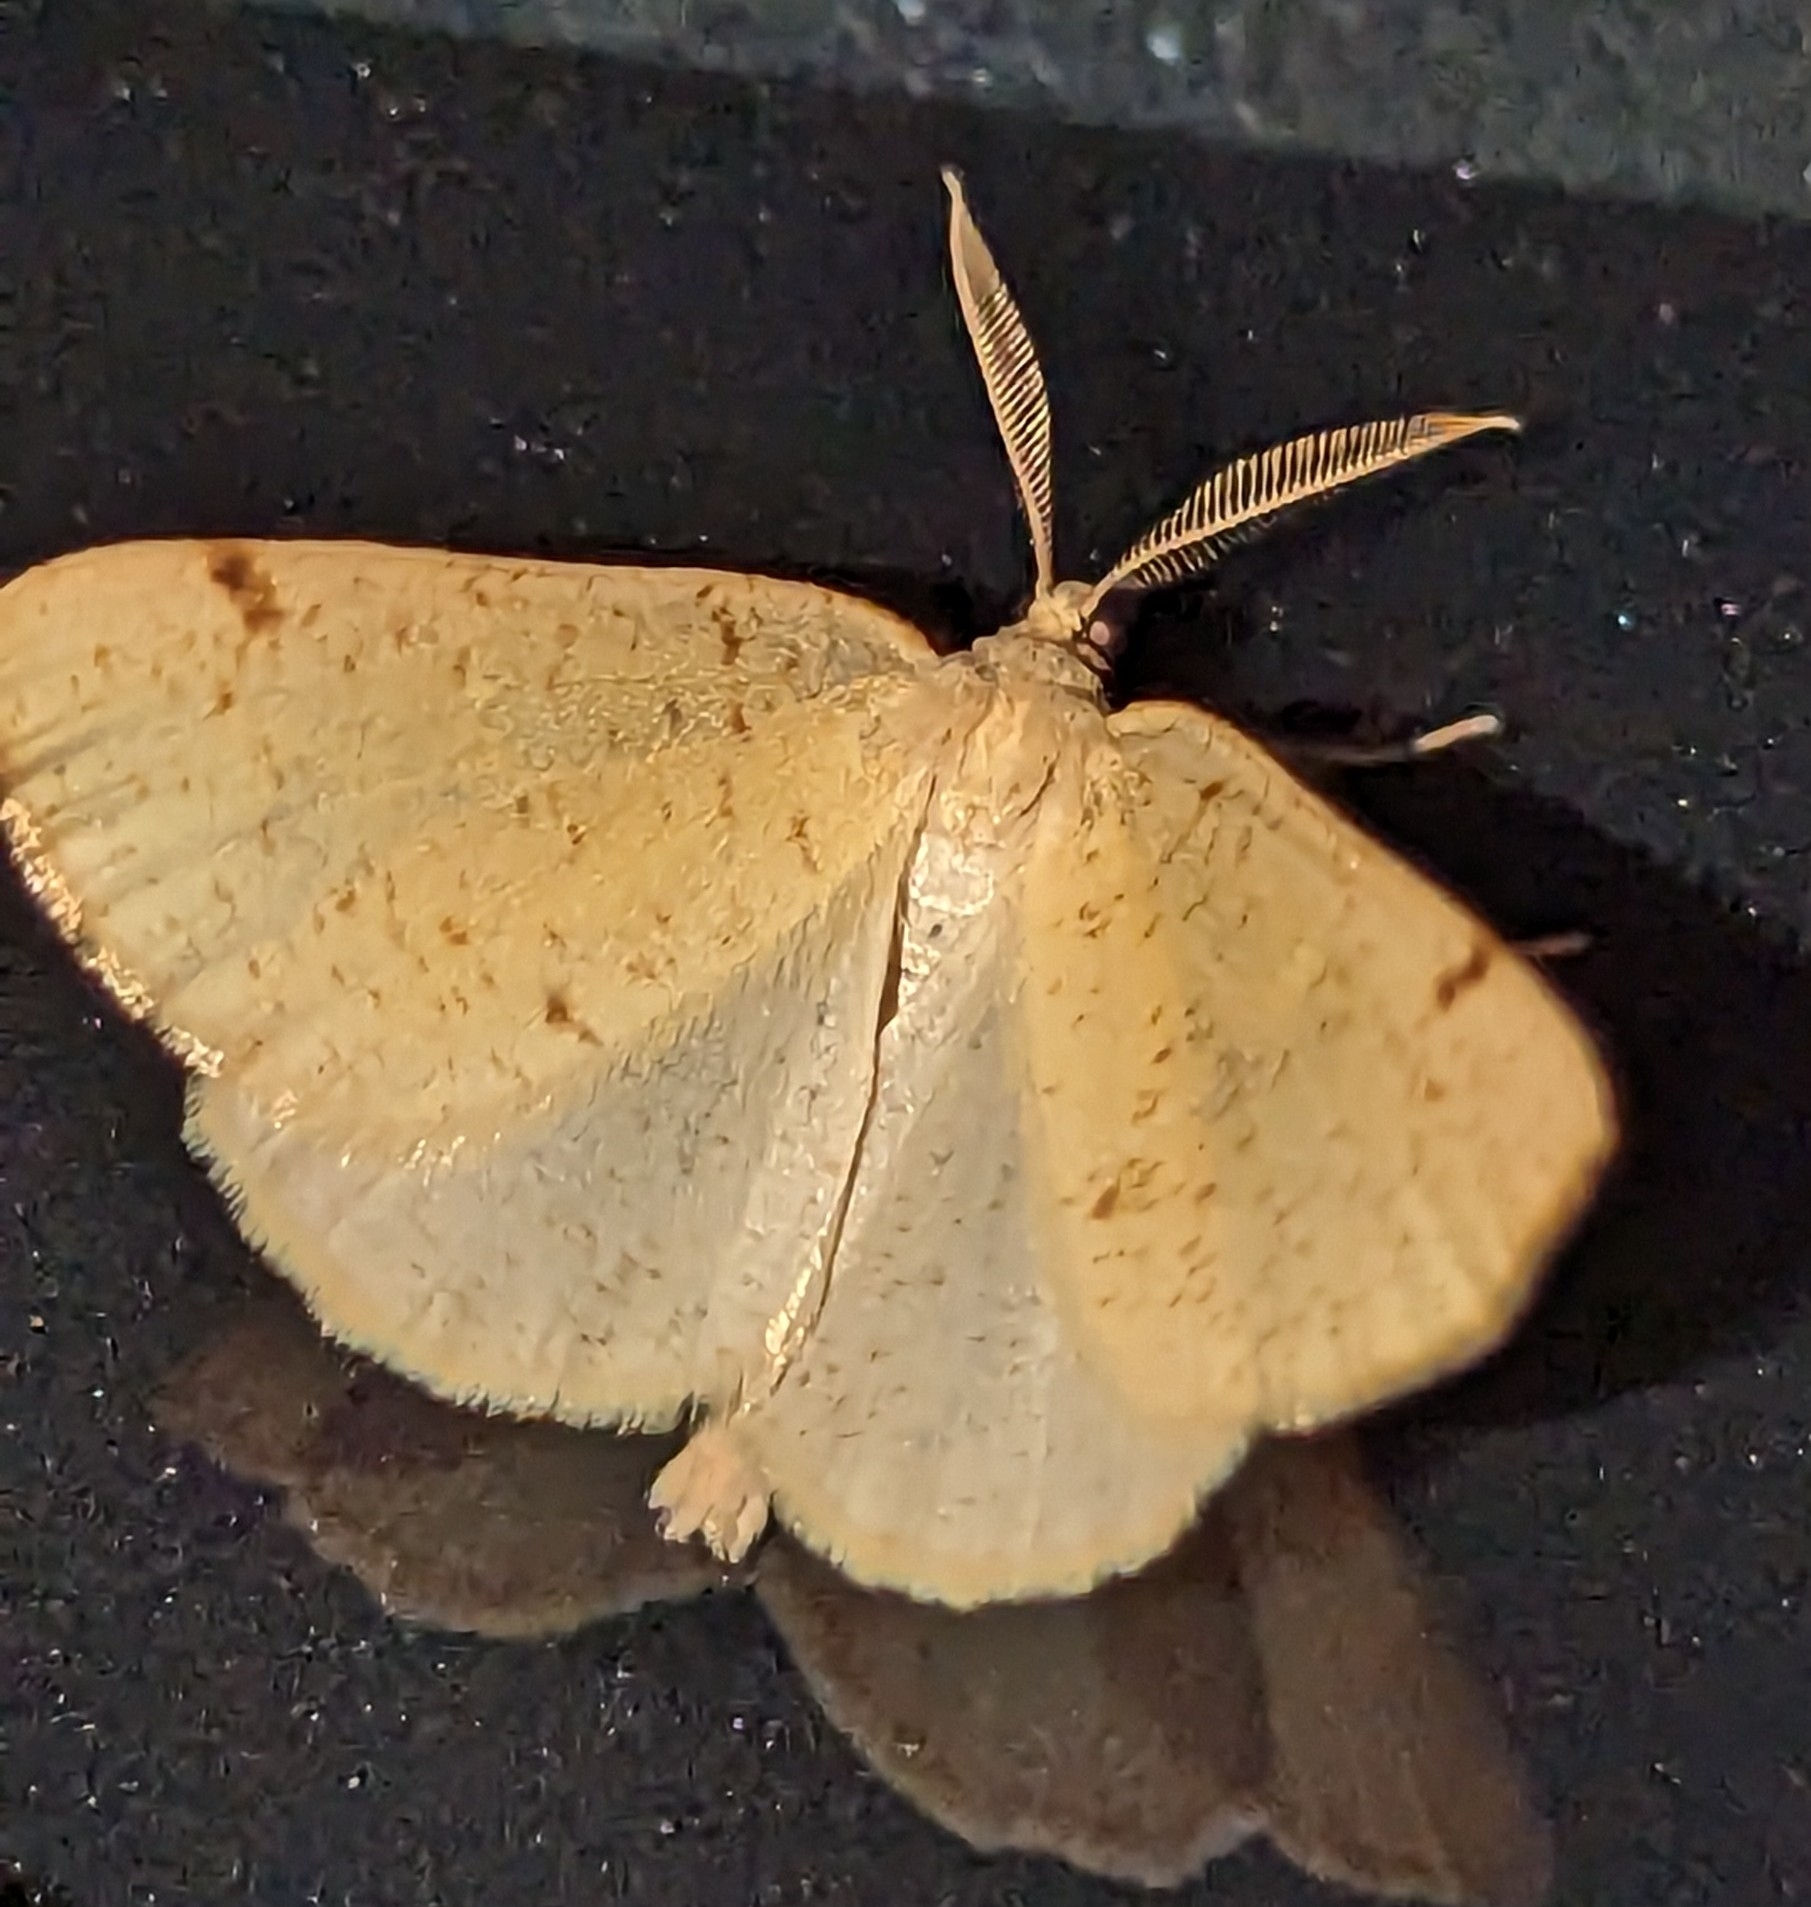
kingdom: Animalia
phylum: Arthropoda
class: Insecta
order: Lepidoptera
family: Geometridae
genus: Hesperumia
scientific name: Hesperumia sulphuraria
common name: Sulphur moth
